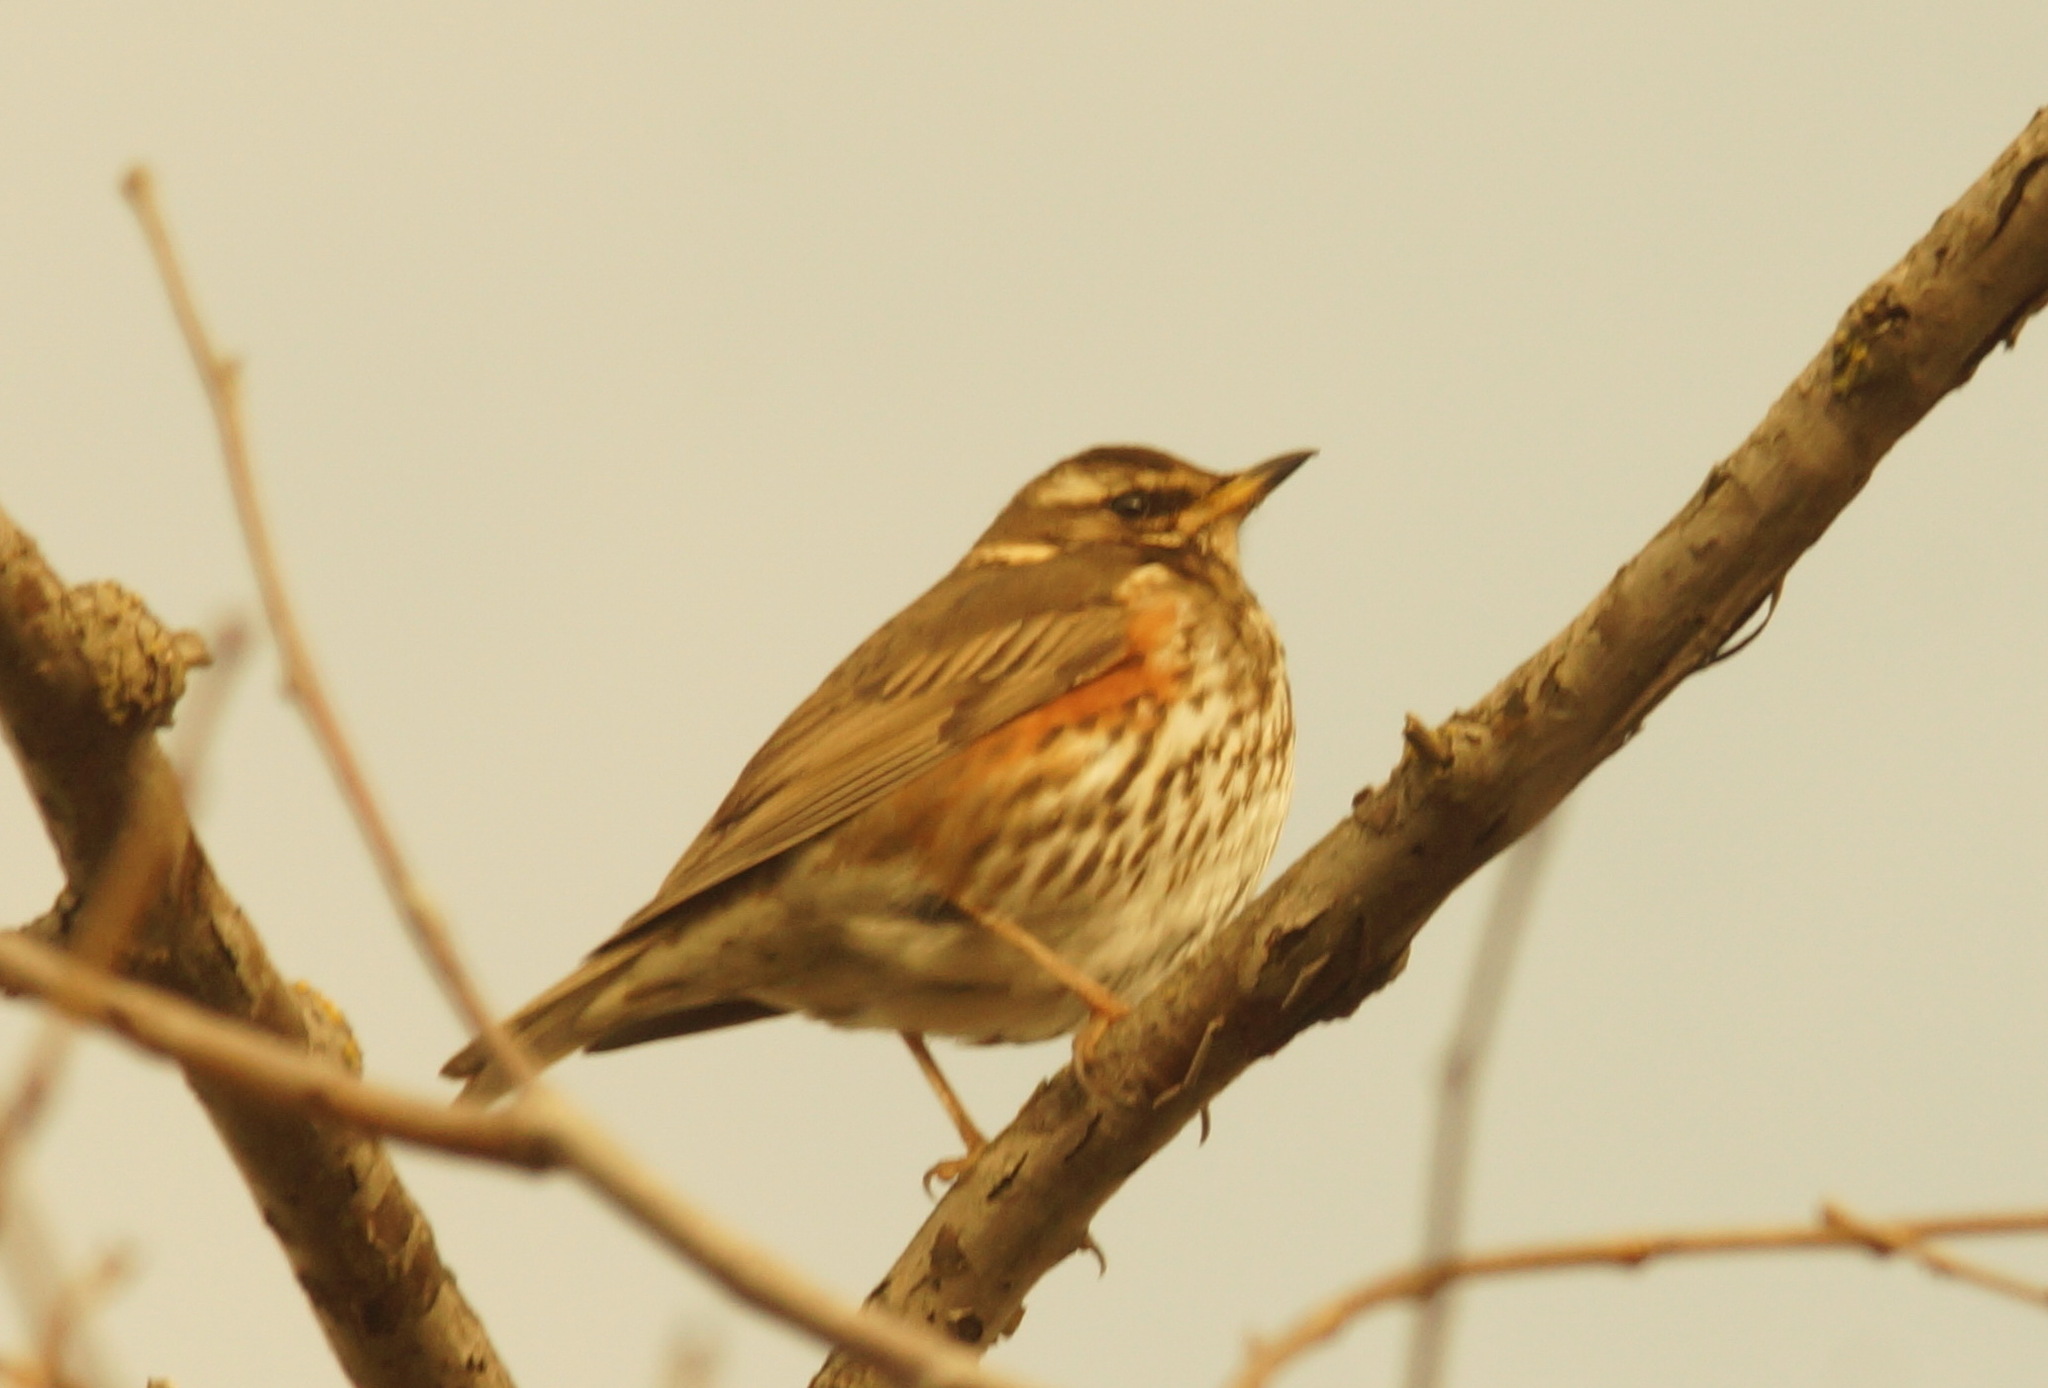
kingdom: Animalia
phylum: Chordata
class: Aves
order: Passeriformes
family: Turdidae
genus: Turdus
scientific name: Turdus iliacus
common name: Redwing
